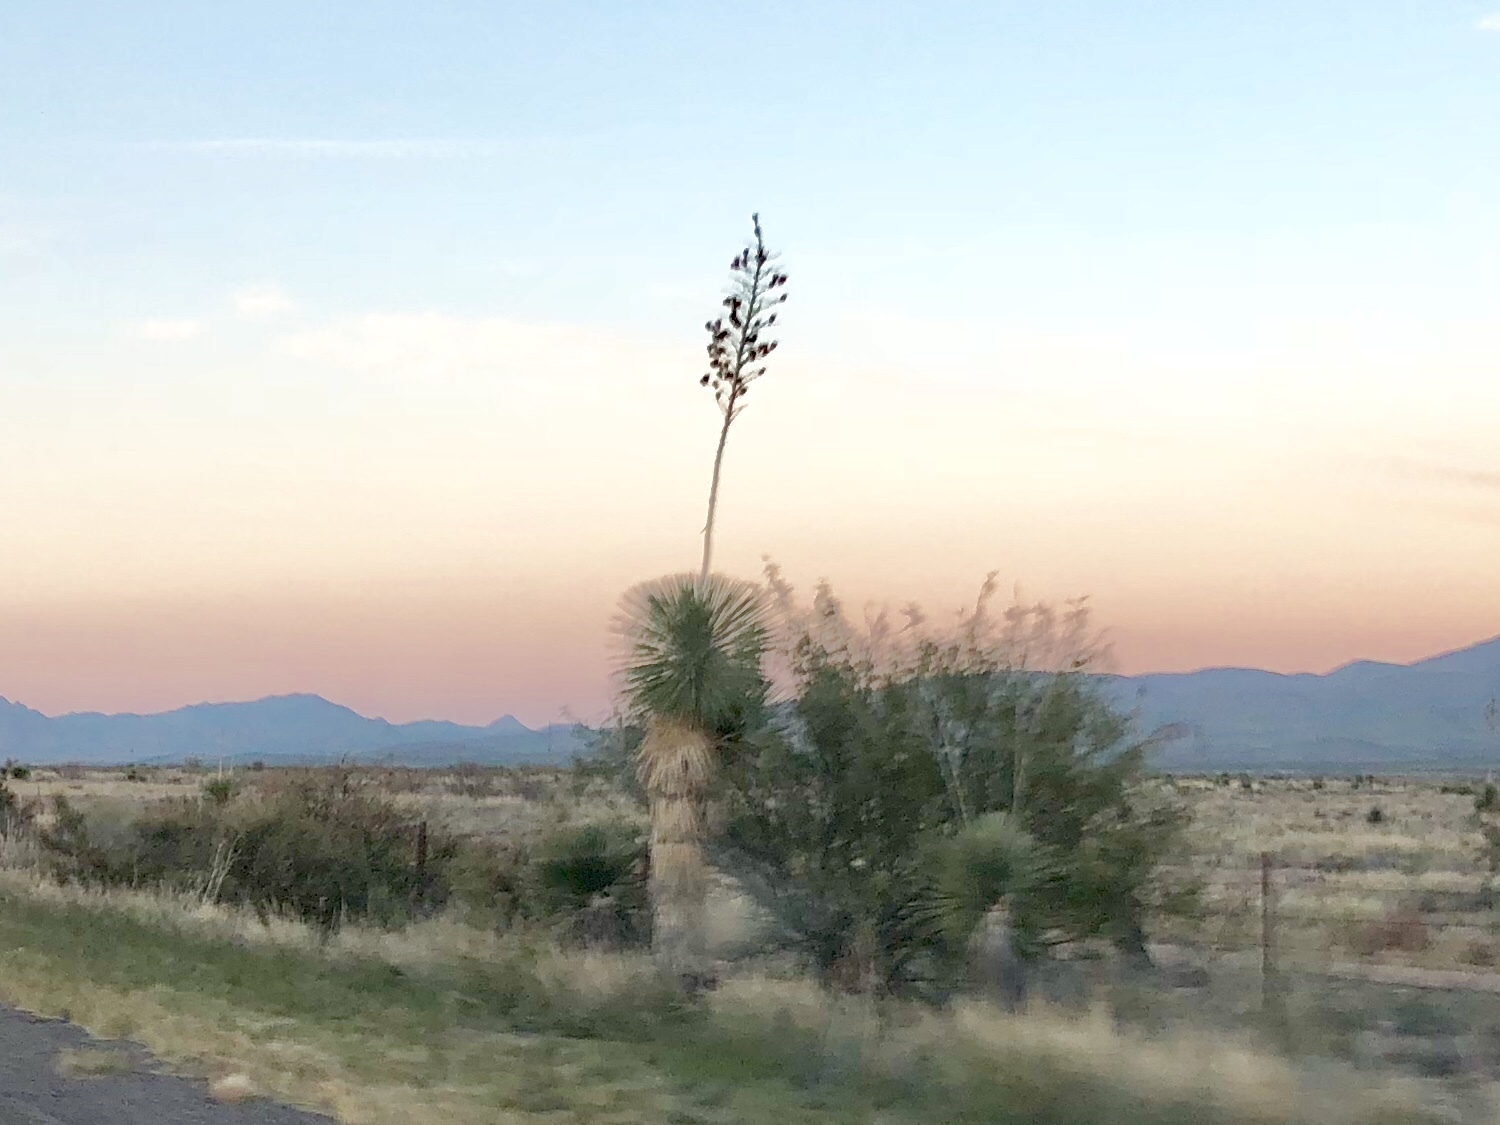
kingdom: Plantae
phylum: Tracheophyta
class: Liliopsida
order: Asparagales
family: Asparagaceae
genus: Yucca
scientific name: Yucca elata
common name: Palmella
